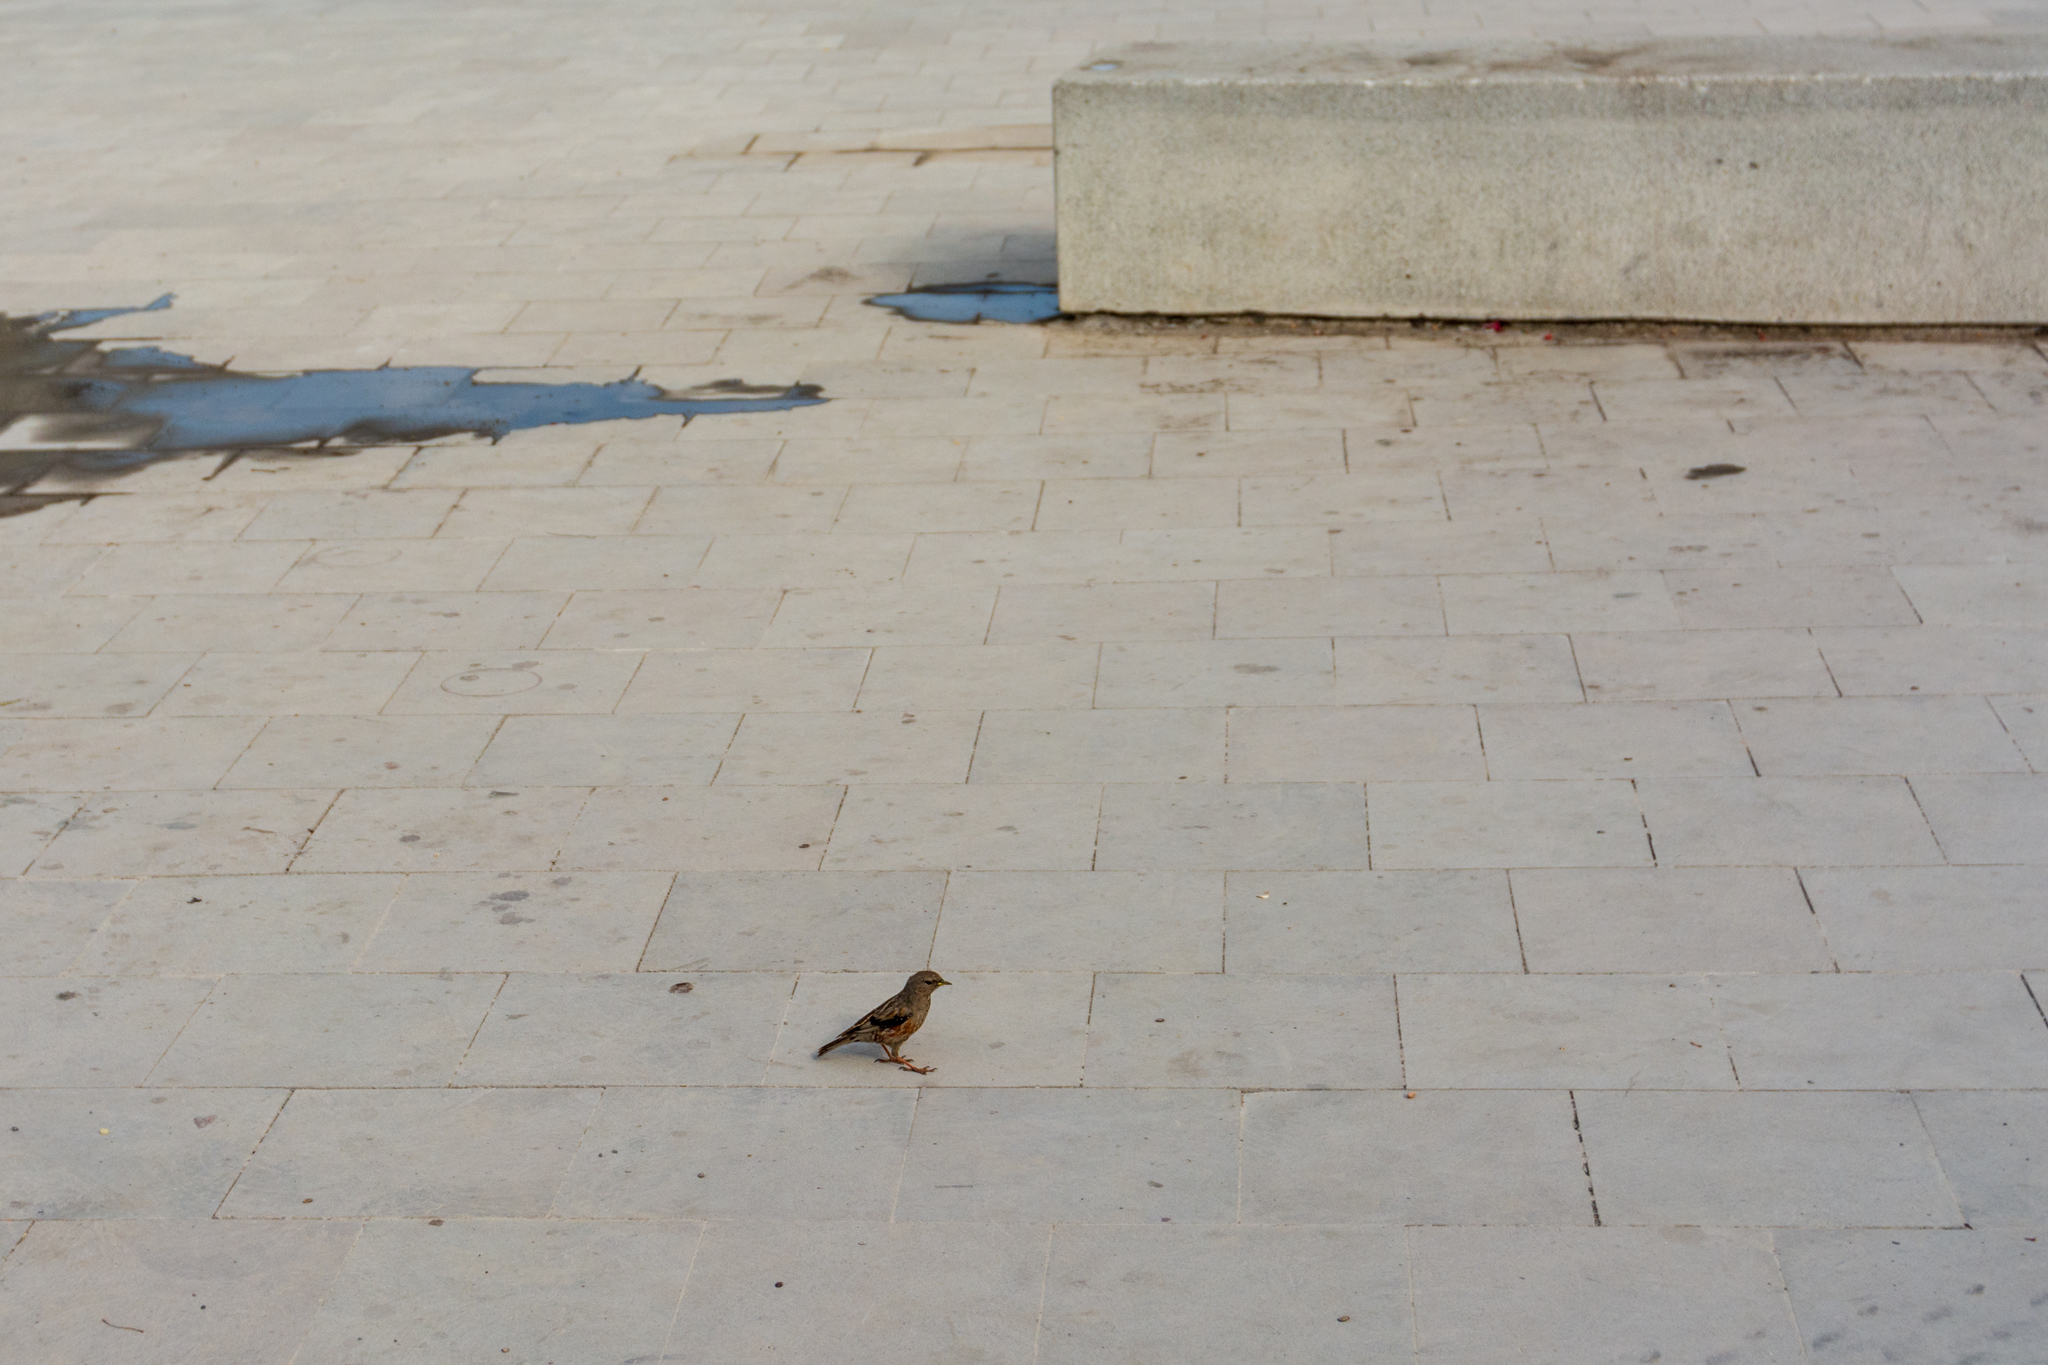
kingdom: Animalia
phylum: Chordata
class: Aves
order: Passeriformes
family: Prunellidae
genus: Prunella
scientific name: Prunella collaris
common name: Alpine accentor
